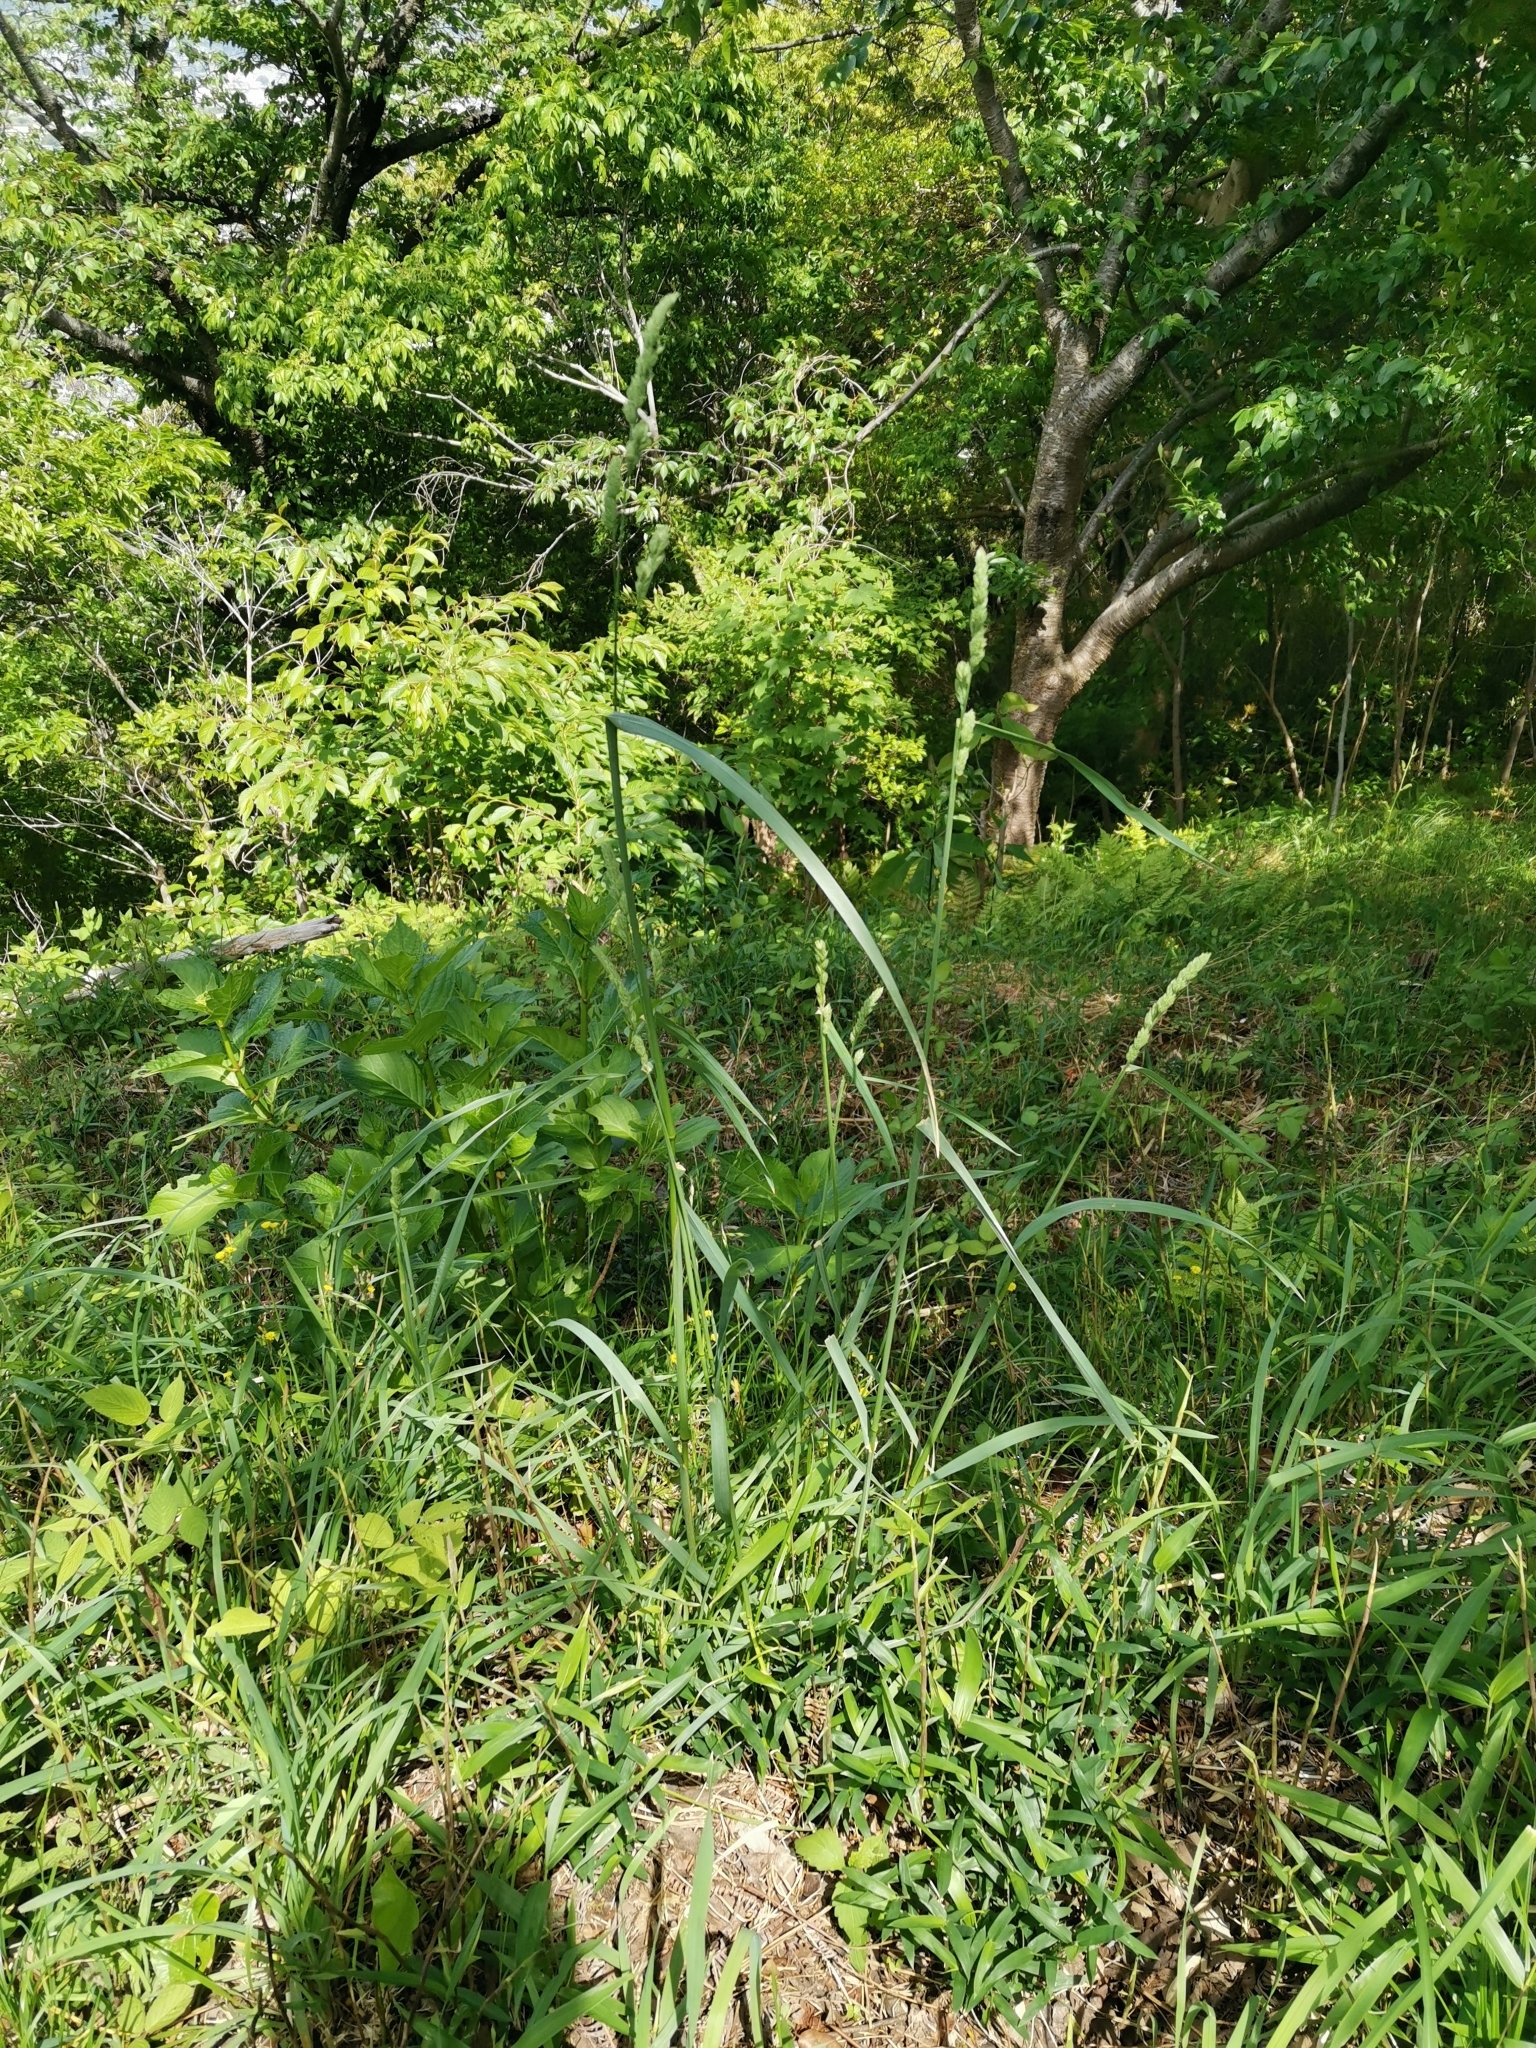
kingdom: Plantae
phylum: Tracheophyta
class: Liliopsida
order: Poales
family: Poaceae
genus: Dactylis
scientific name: Dactylis glomerata
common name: Orchardgrass
